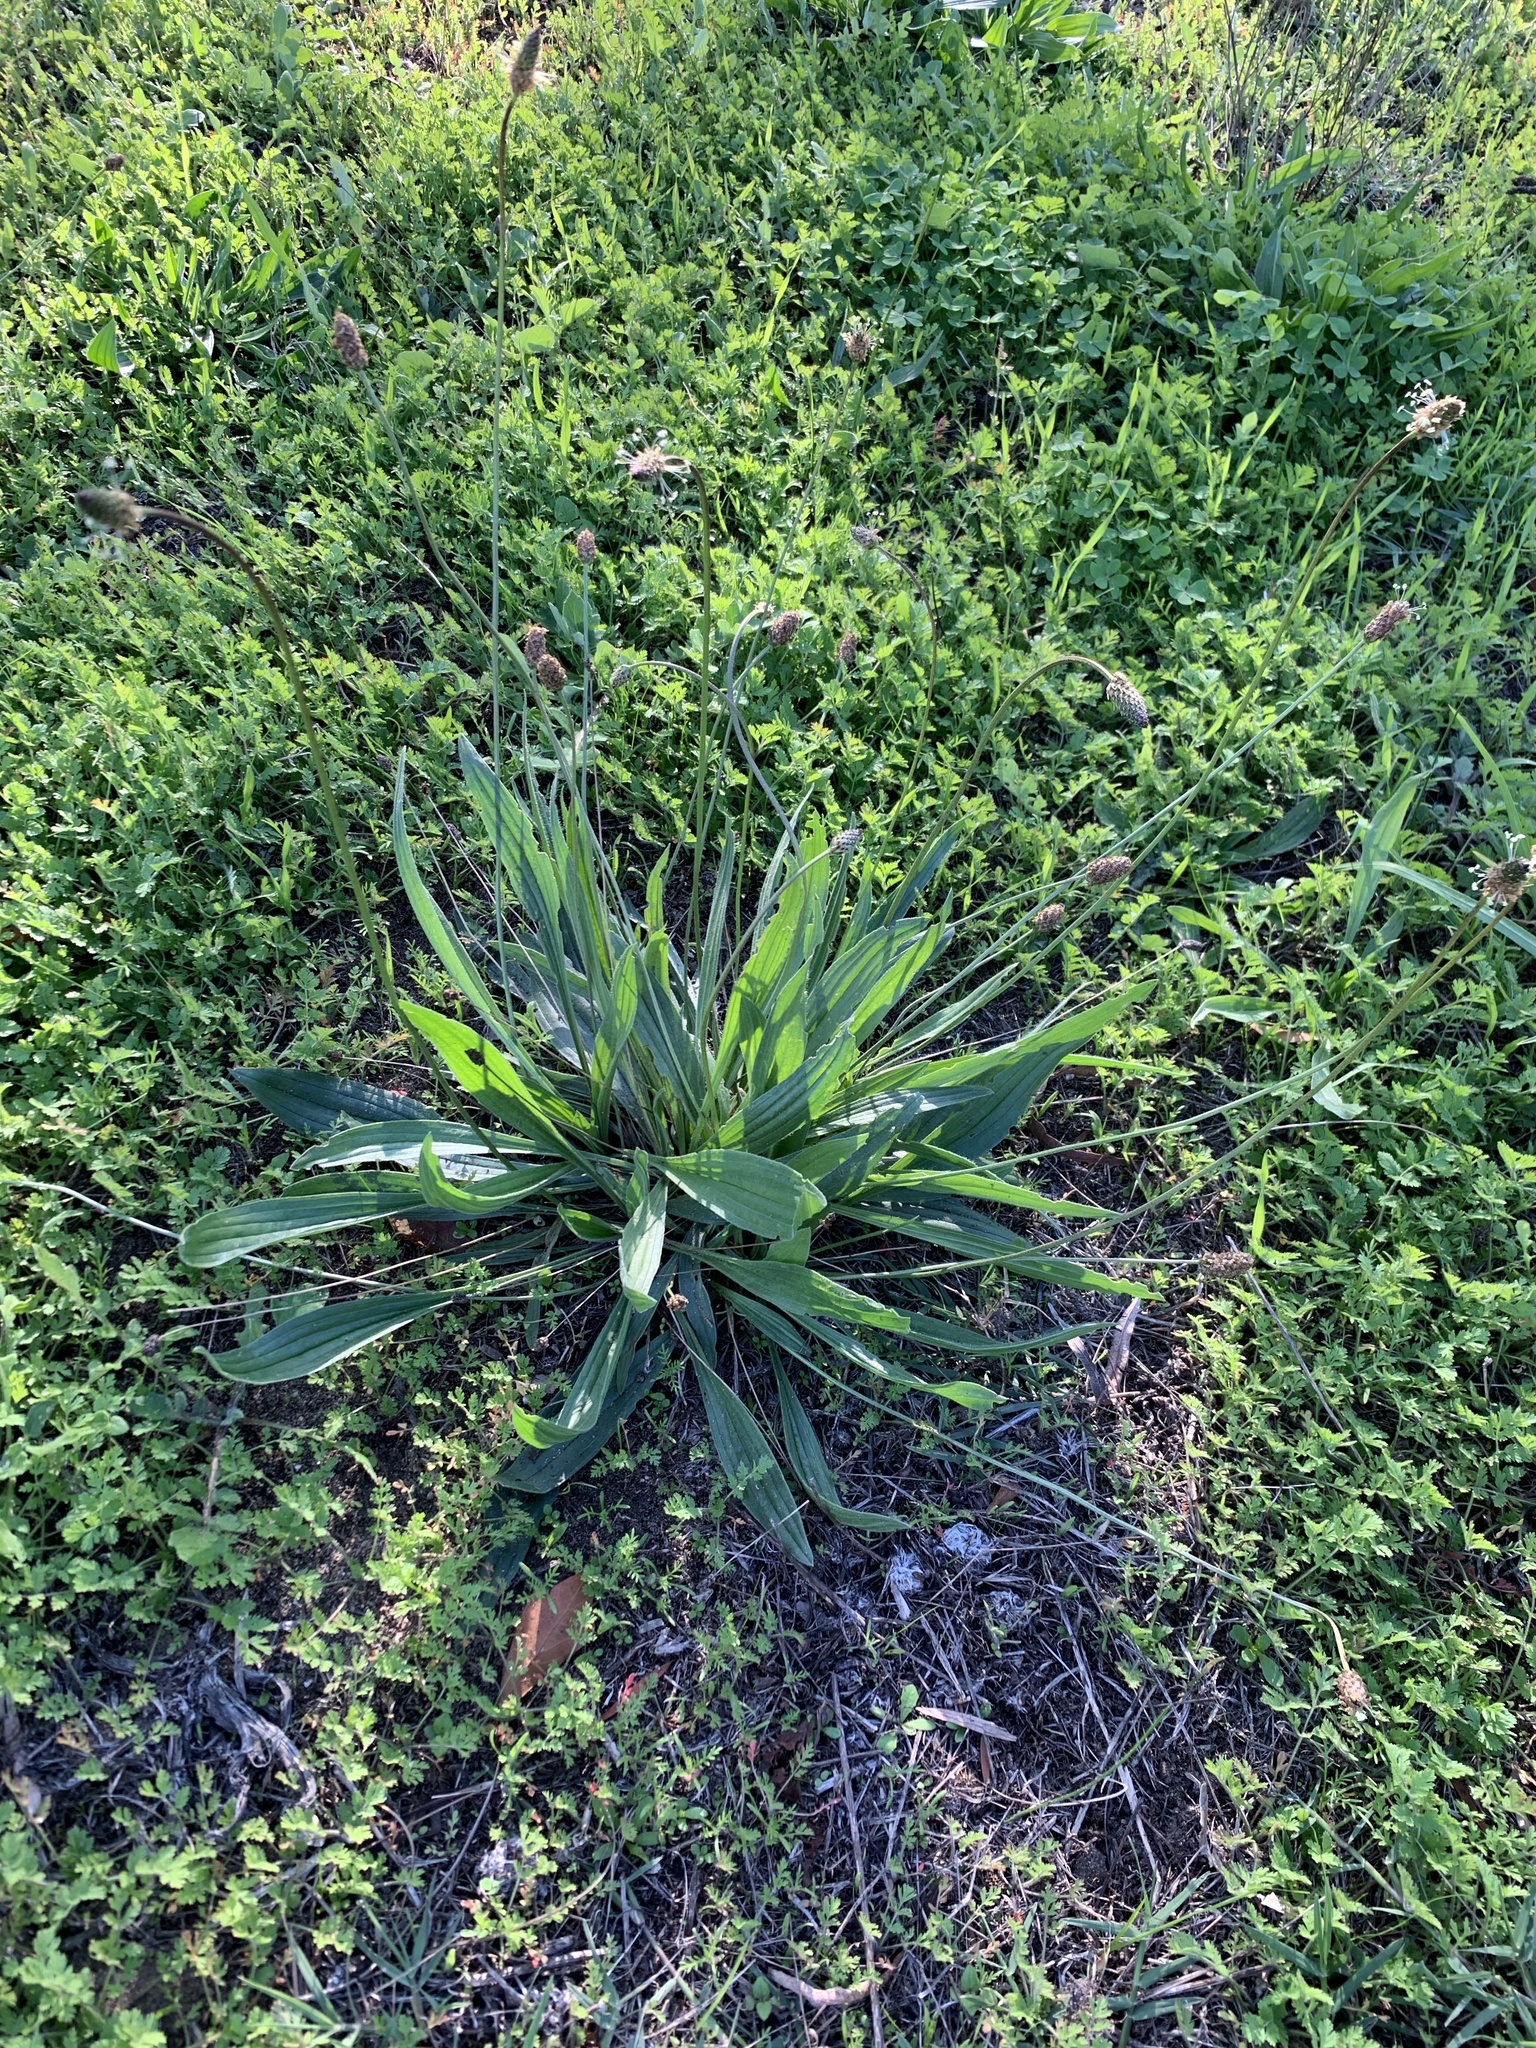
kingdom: Plantae
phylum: Tracheophyta
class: Magnoliopsida
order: Lamiales
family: Plantaginaceae
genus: Plantago
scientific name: Plantago lanceolata
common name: Ribwort plantain
